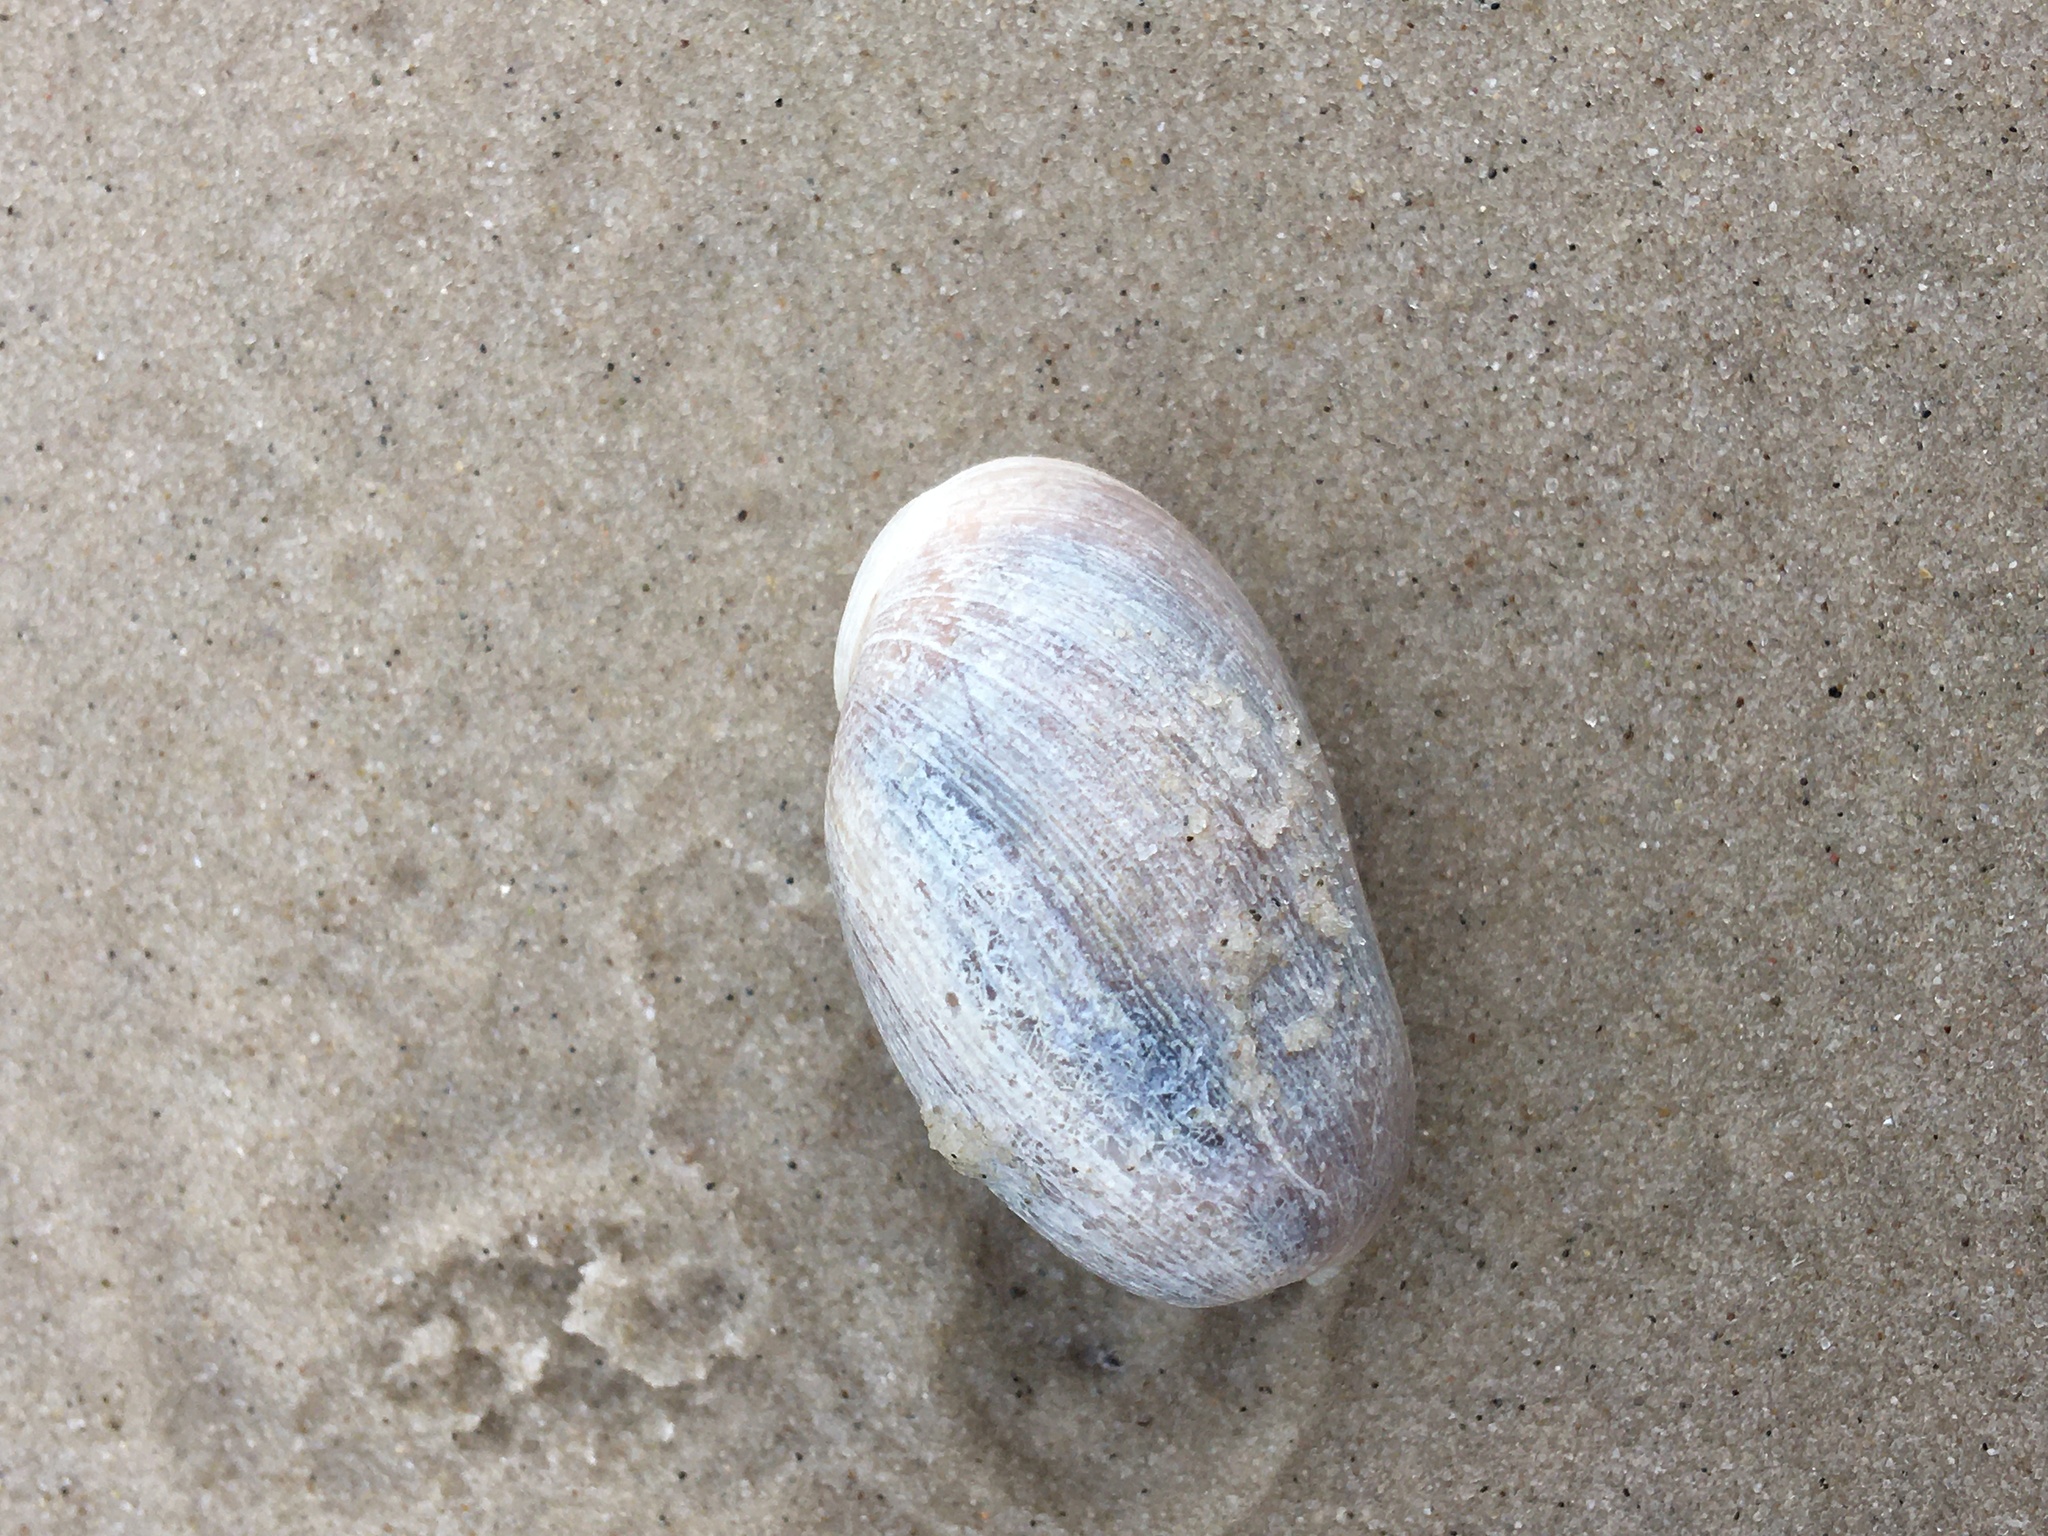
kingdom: Animalia
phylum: Mollusca
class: Gastropoda
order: Cephalaspidea
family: Bullidae
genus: Bulla
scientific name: Bulla occidentalis
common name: Common west-indian bubble
